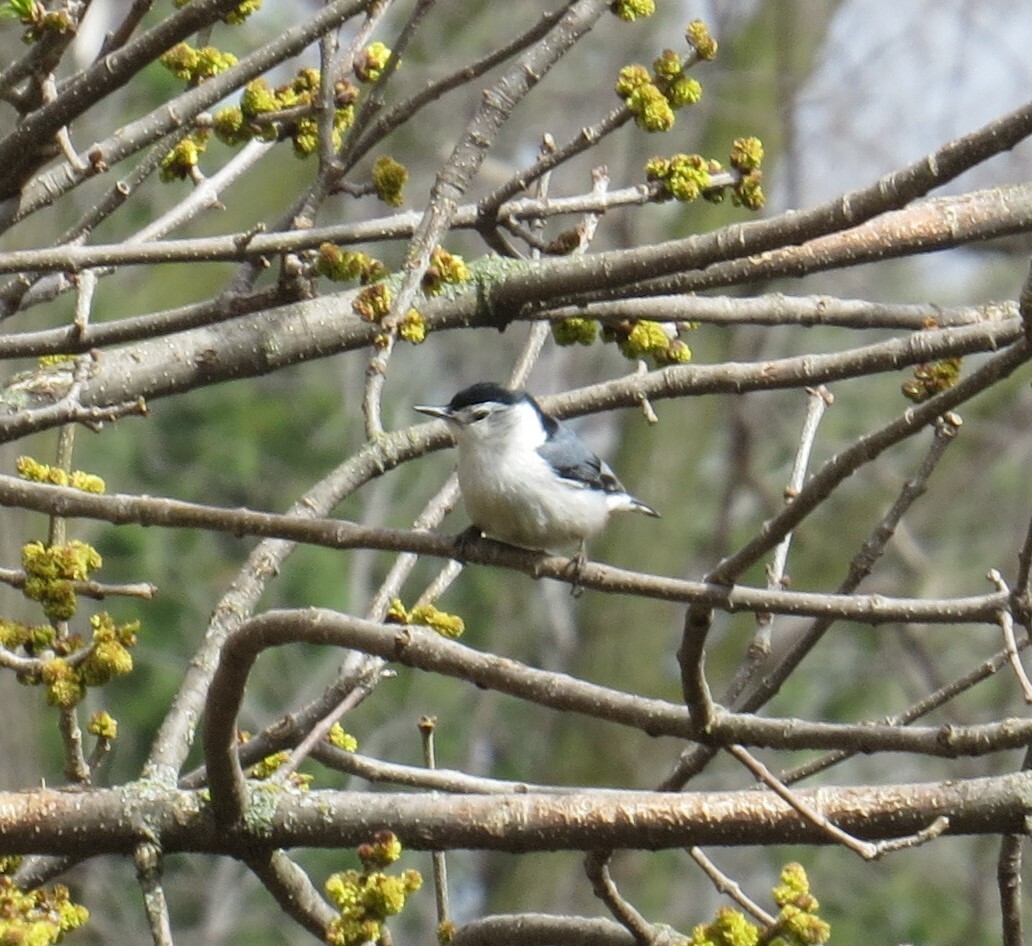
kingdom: Animalia
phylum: Chordata
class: Aves
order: Passeriformes
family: Sittidae
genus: Sitta
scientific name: Sitta carolinensis
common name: White-breasted nuthatch
